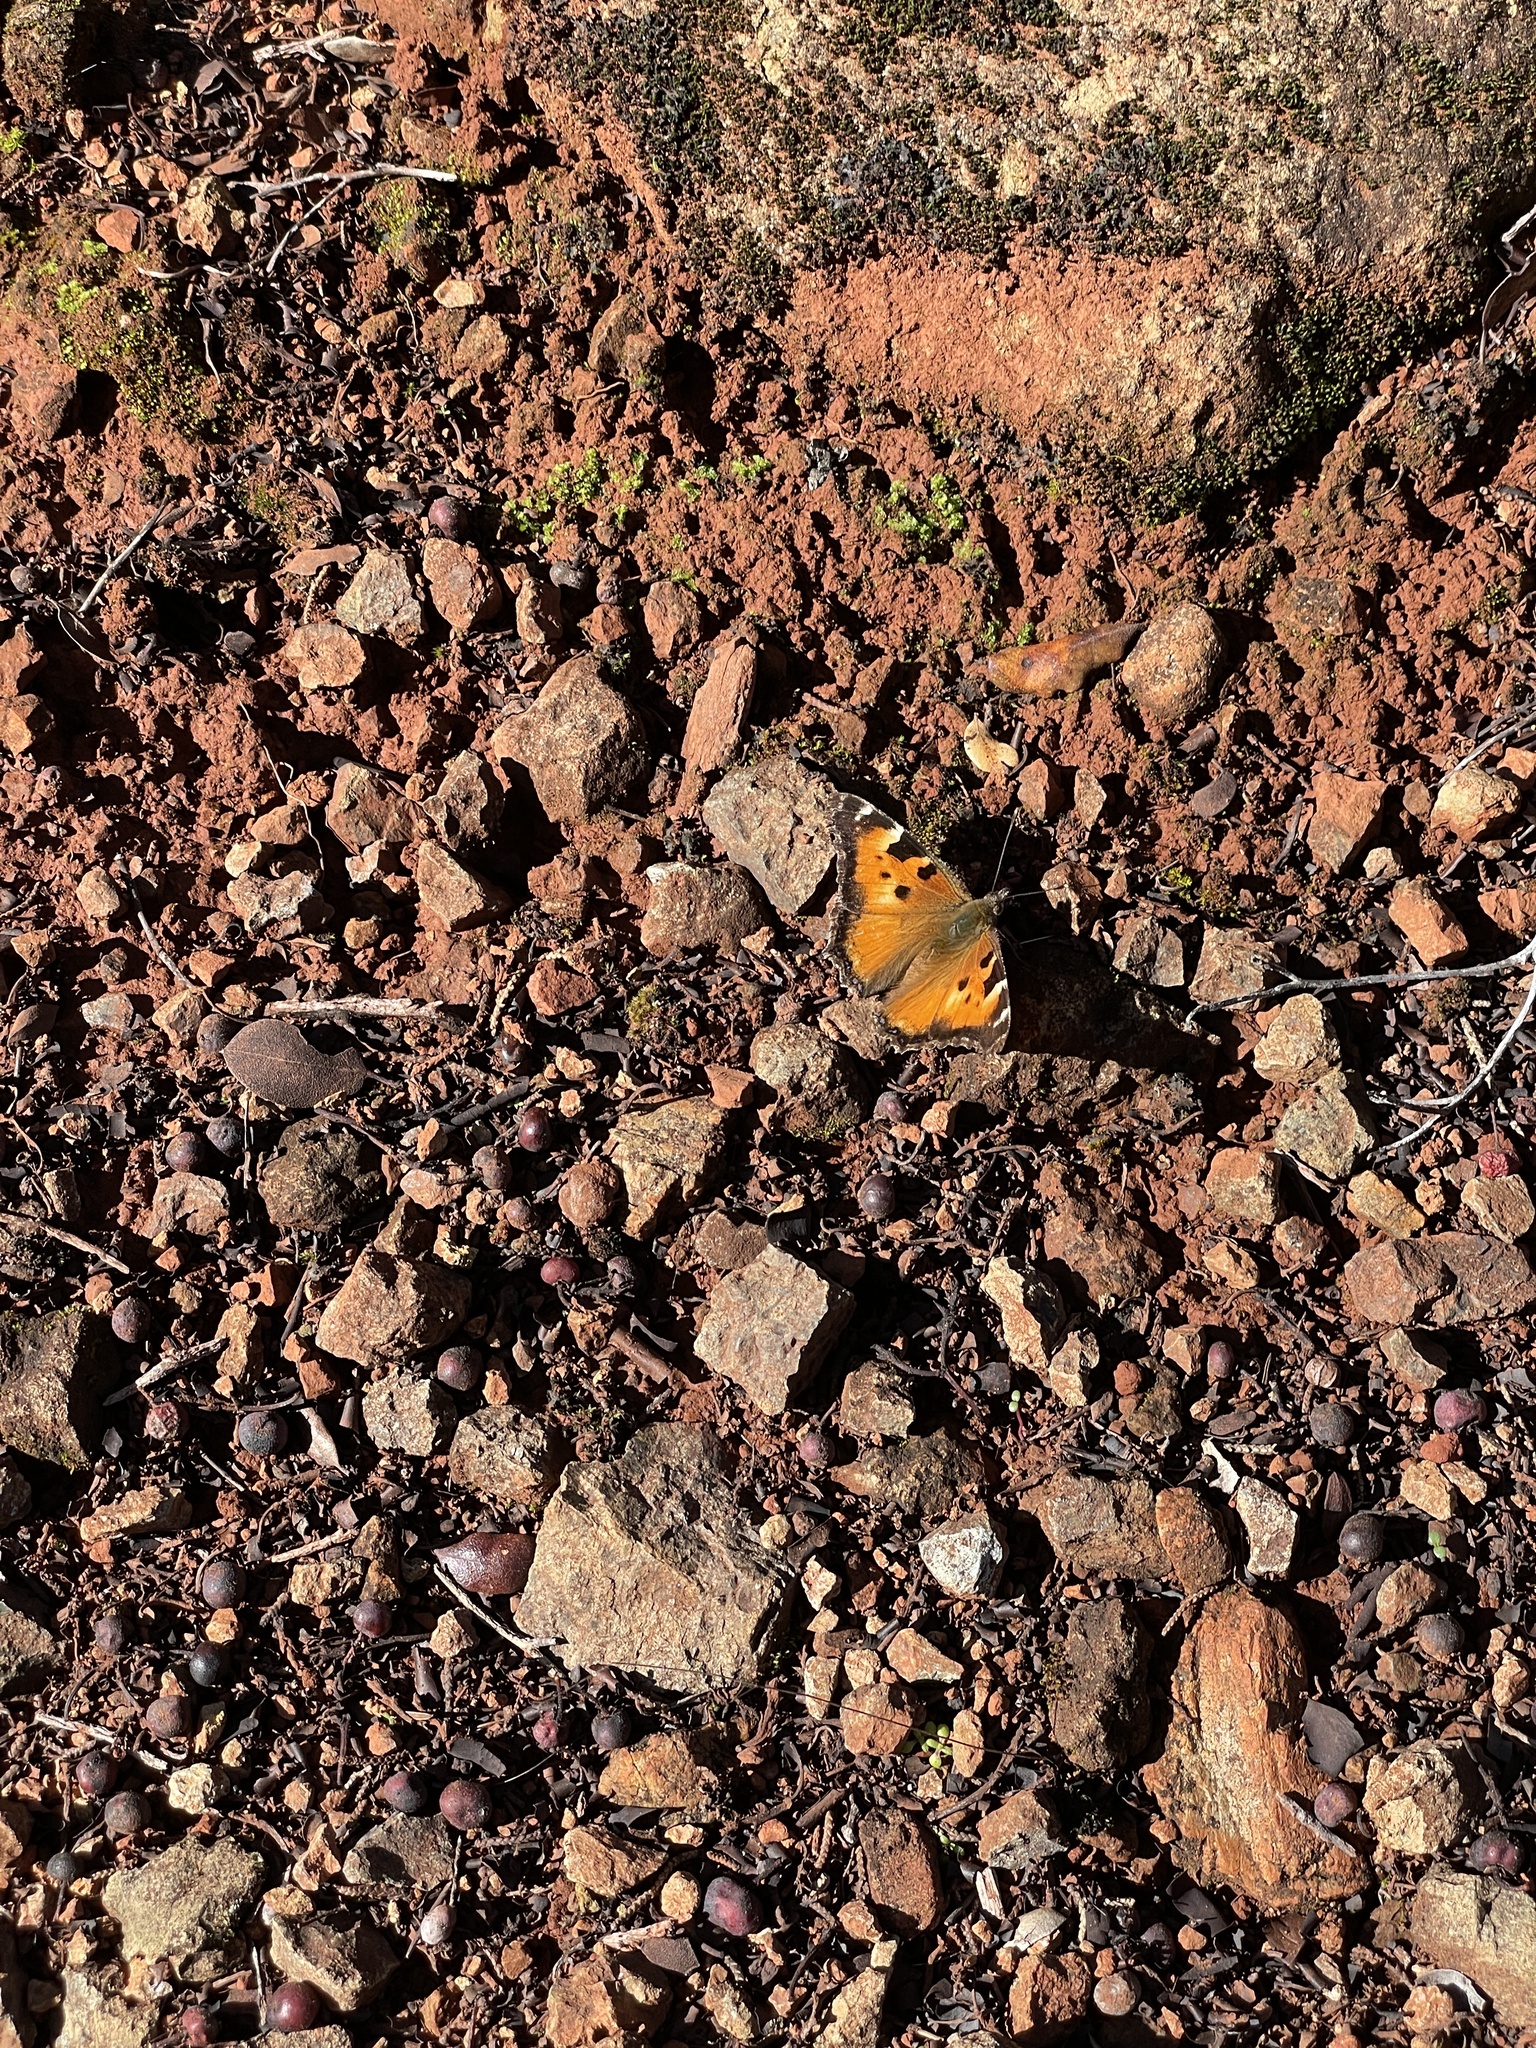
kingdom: Animalia
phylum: Arthropoda
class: Insecta
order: Lepidoptera
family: Nymphalidae
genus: Nymphalis
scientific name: Nymphalis californica
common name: California tortoiseshell
